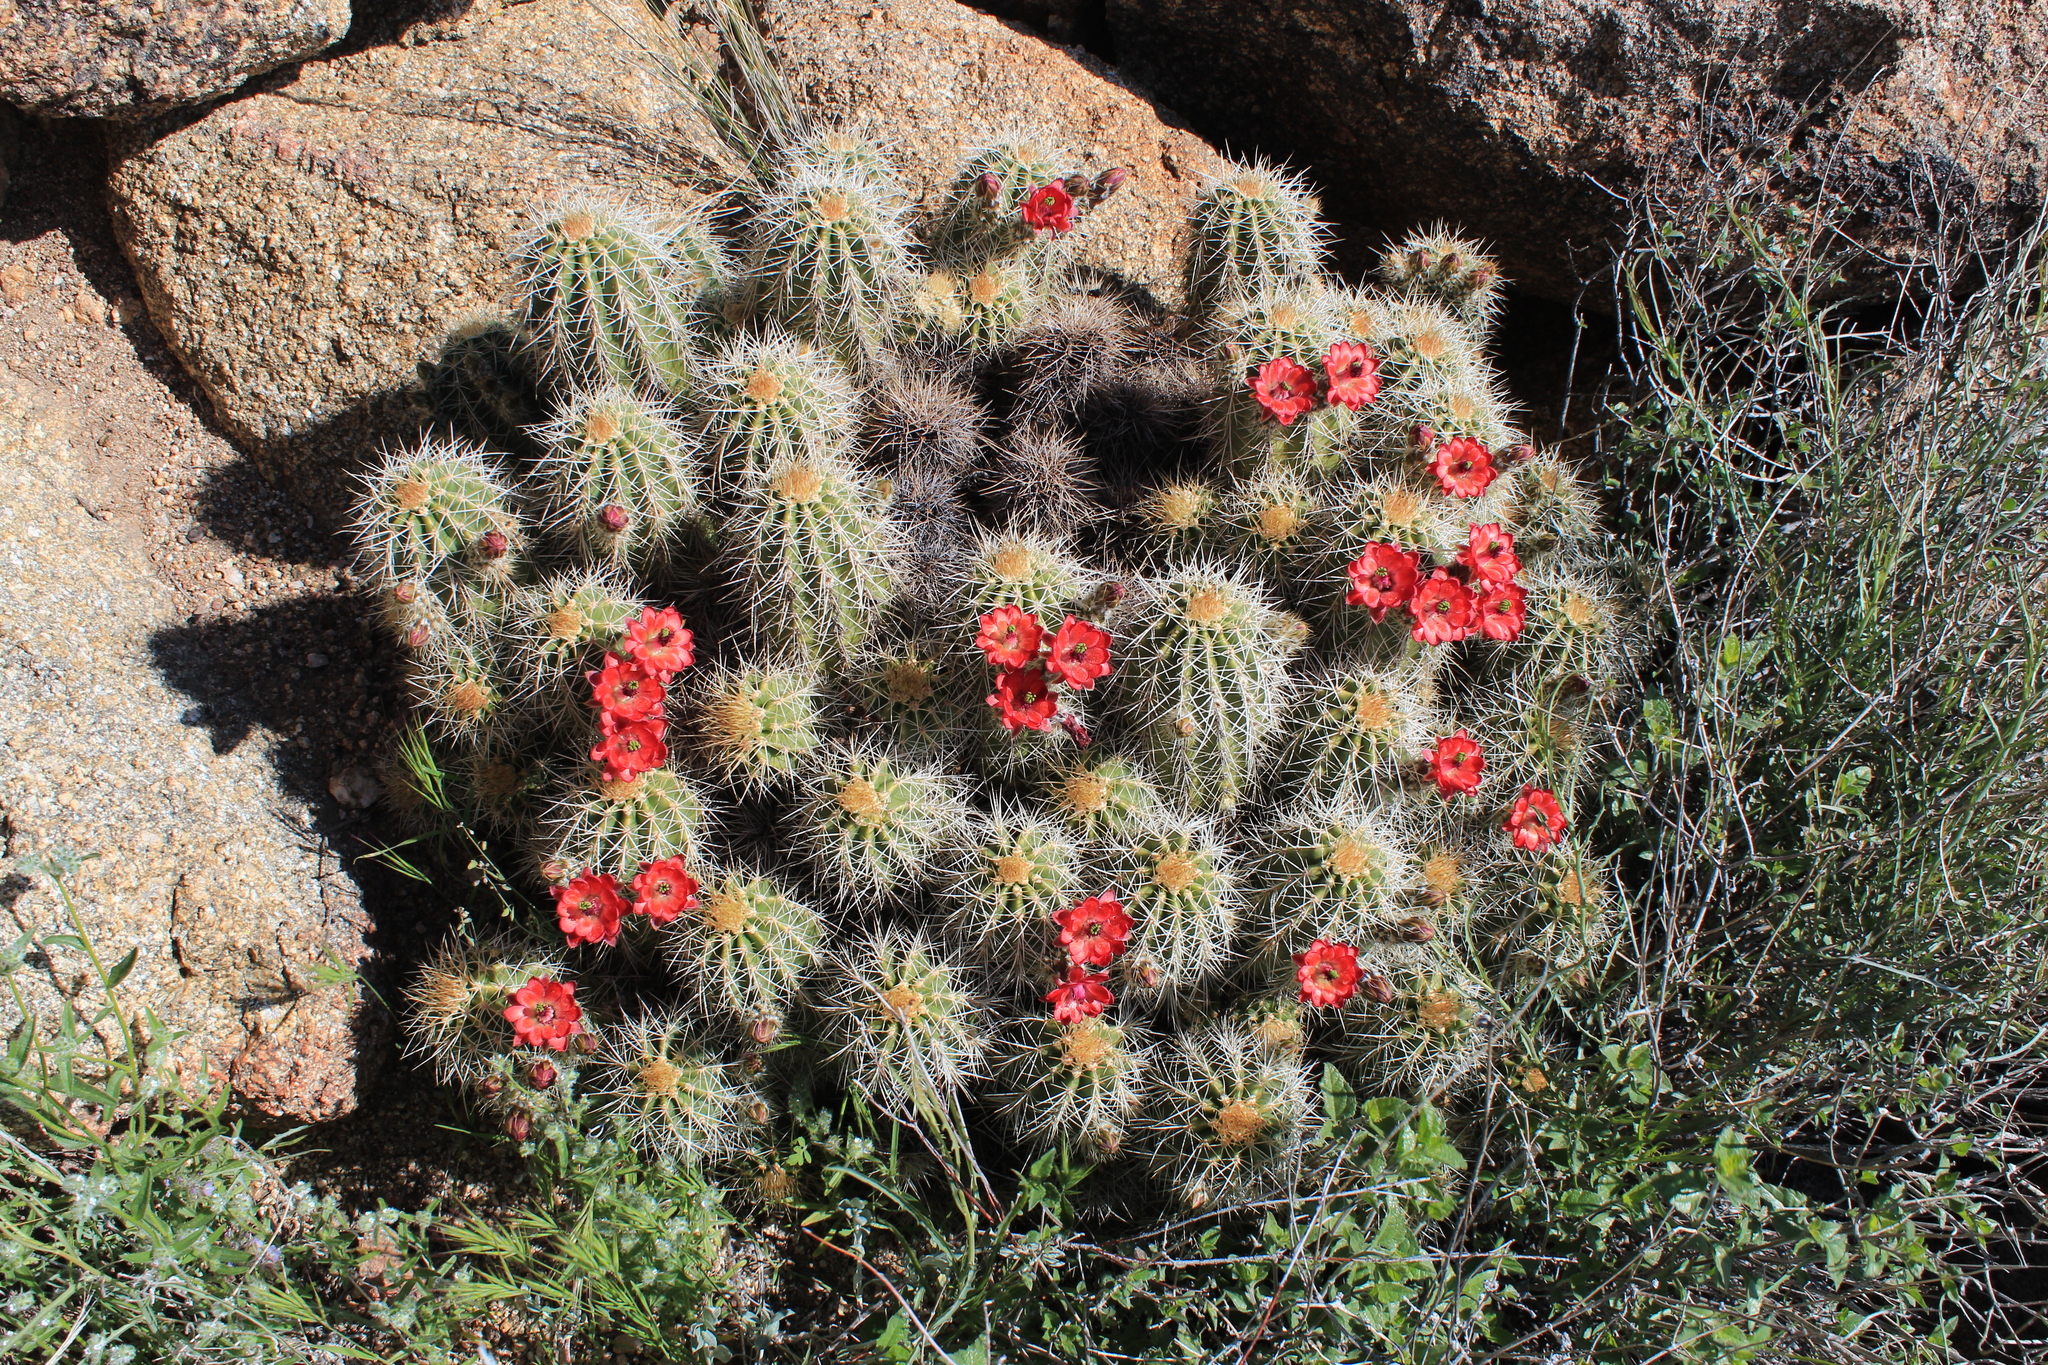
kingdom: Plantae
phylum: Tracheophyta
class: Magnoliopsida
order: Caryophyllales
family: Cactaceae
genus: Echinocereus
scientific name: Echinocereus yavapaiensis
